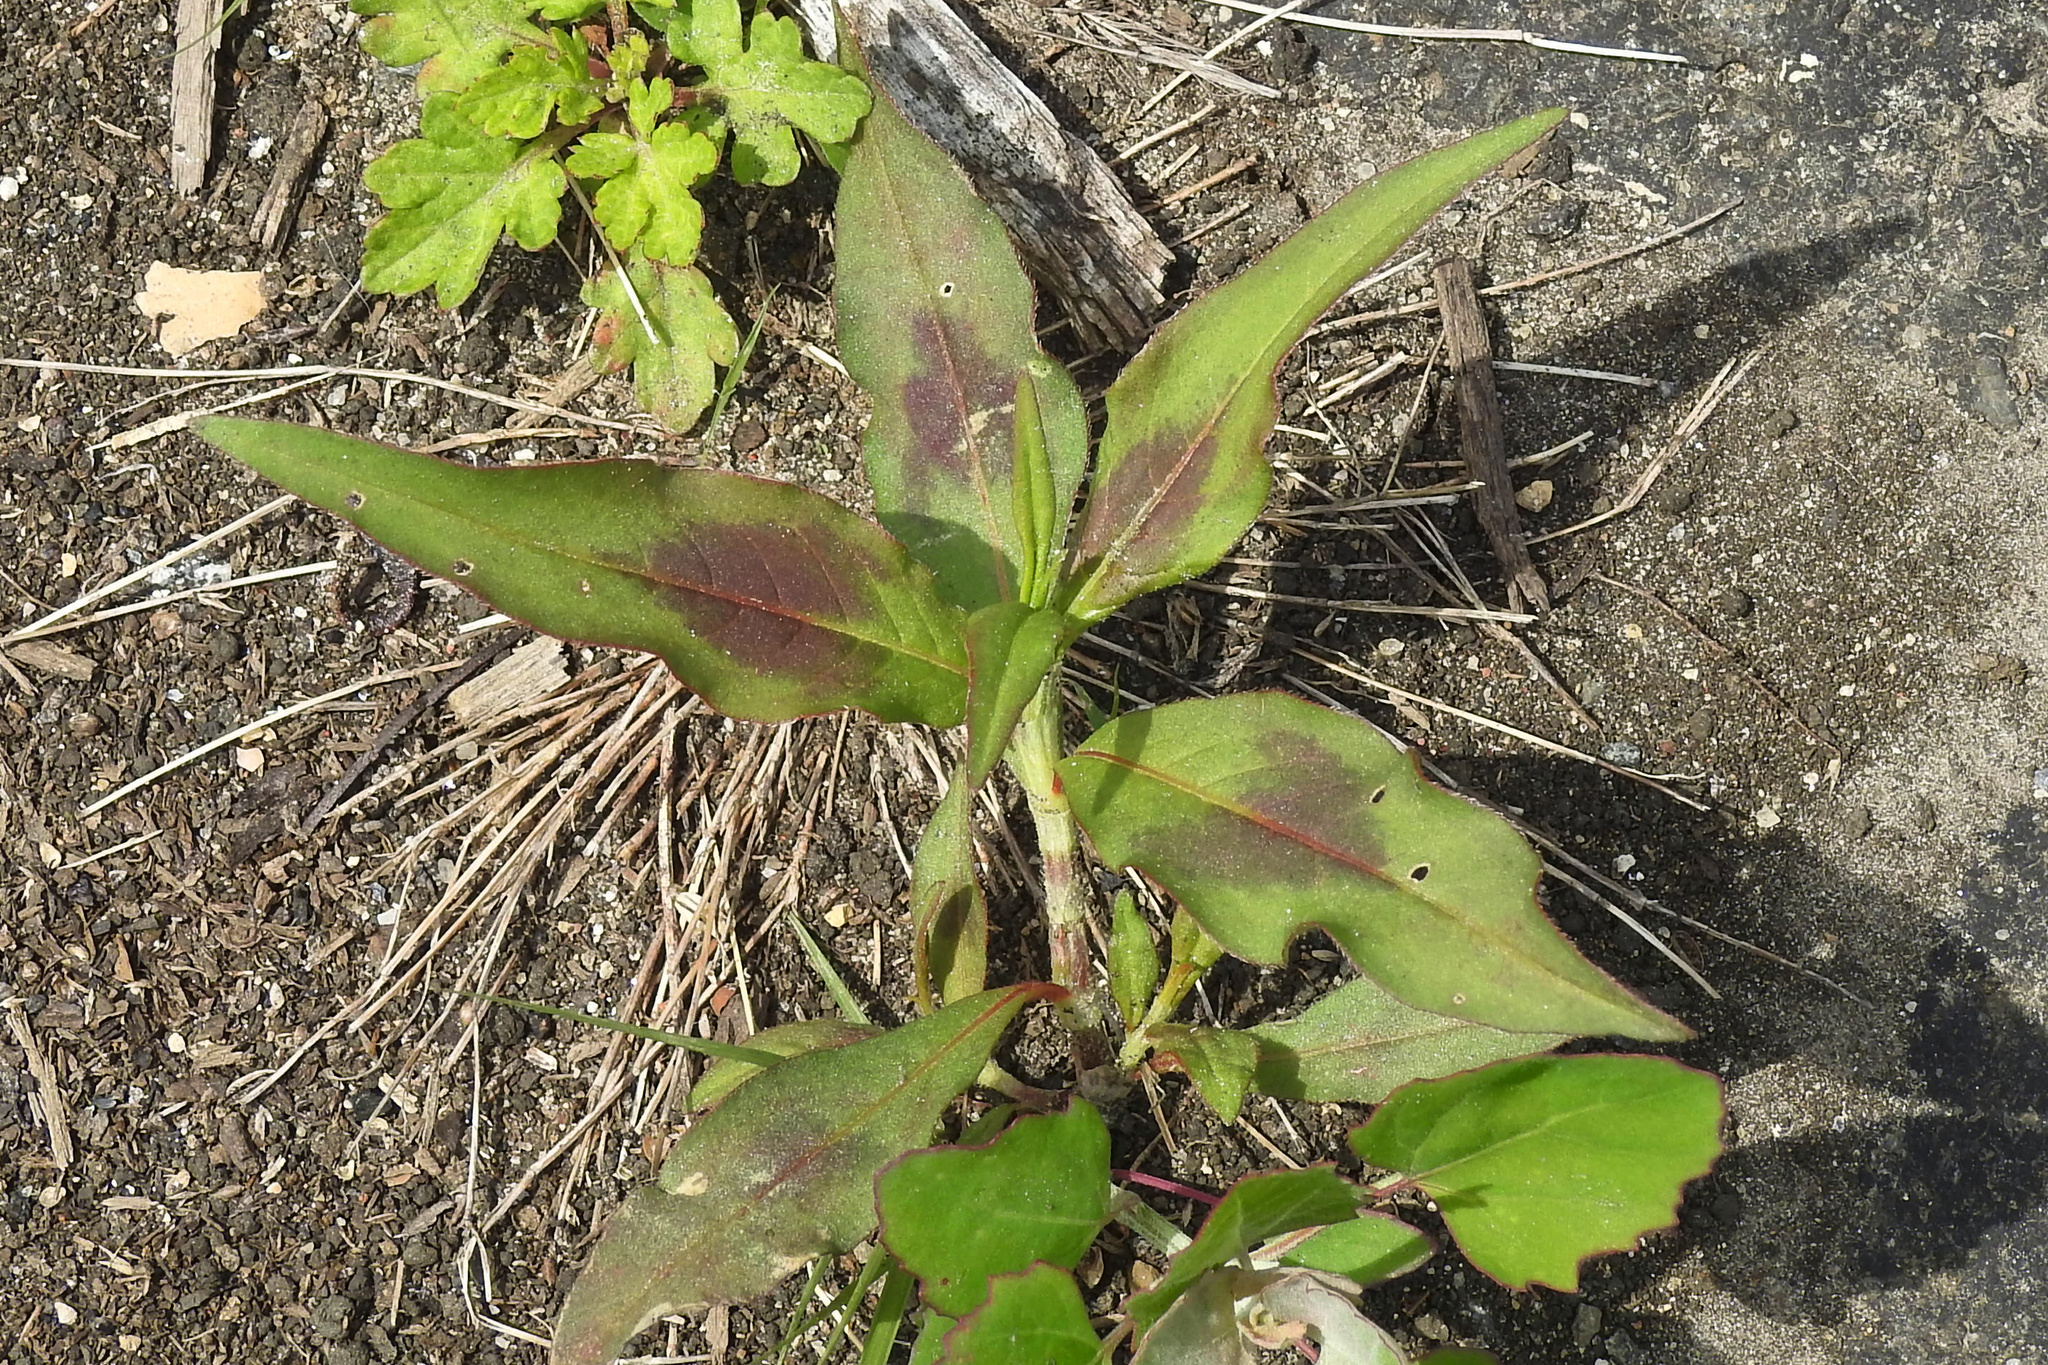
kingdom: Plantae
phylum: Tracheophyta
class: Magnoliopsida
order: Caryophyllales
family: Polygonaceae
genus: Persicaria
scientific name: Persicaria maculosa
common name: Redshank
